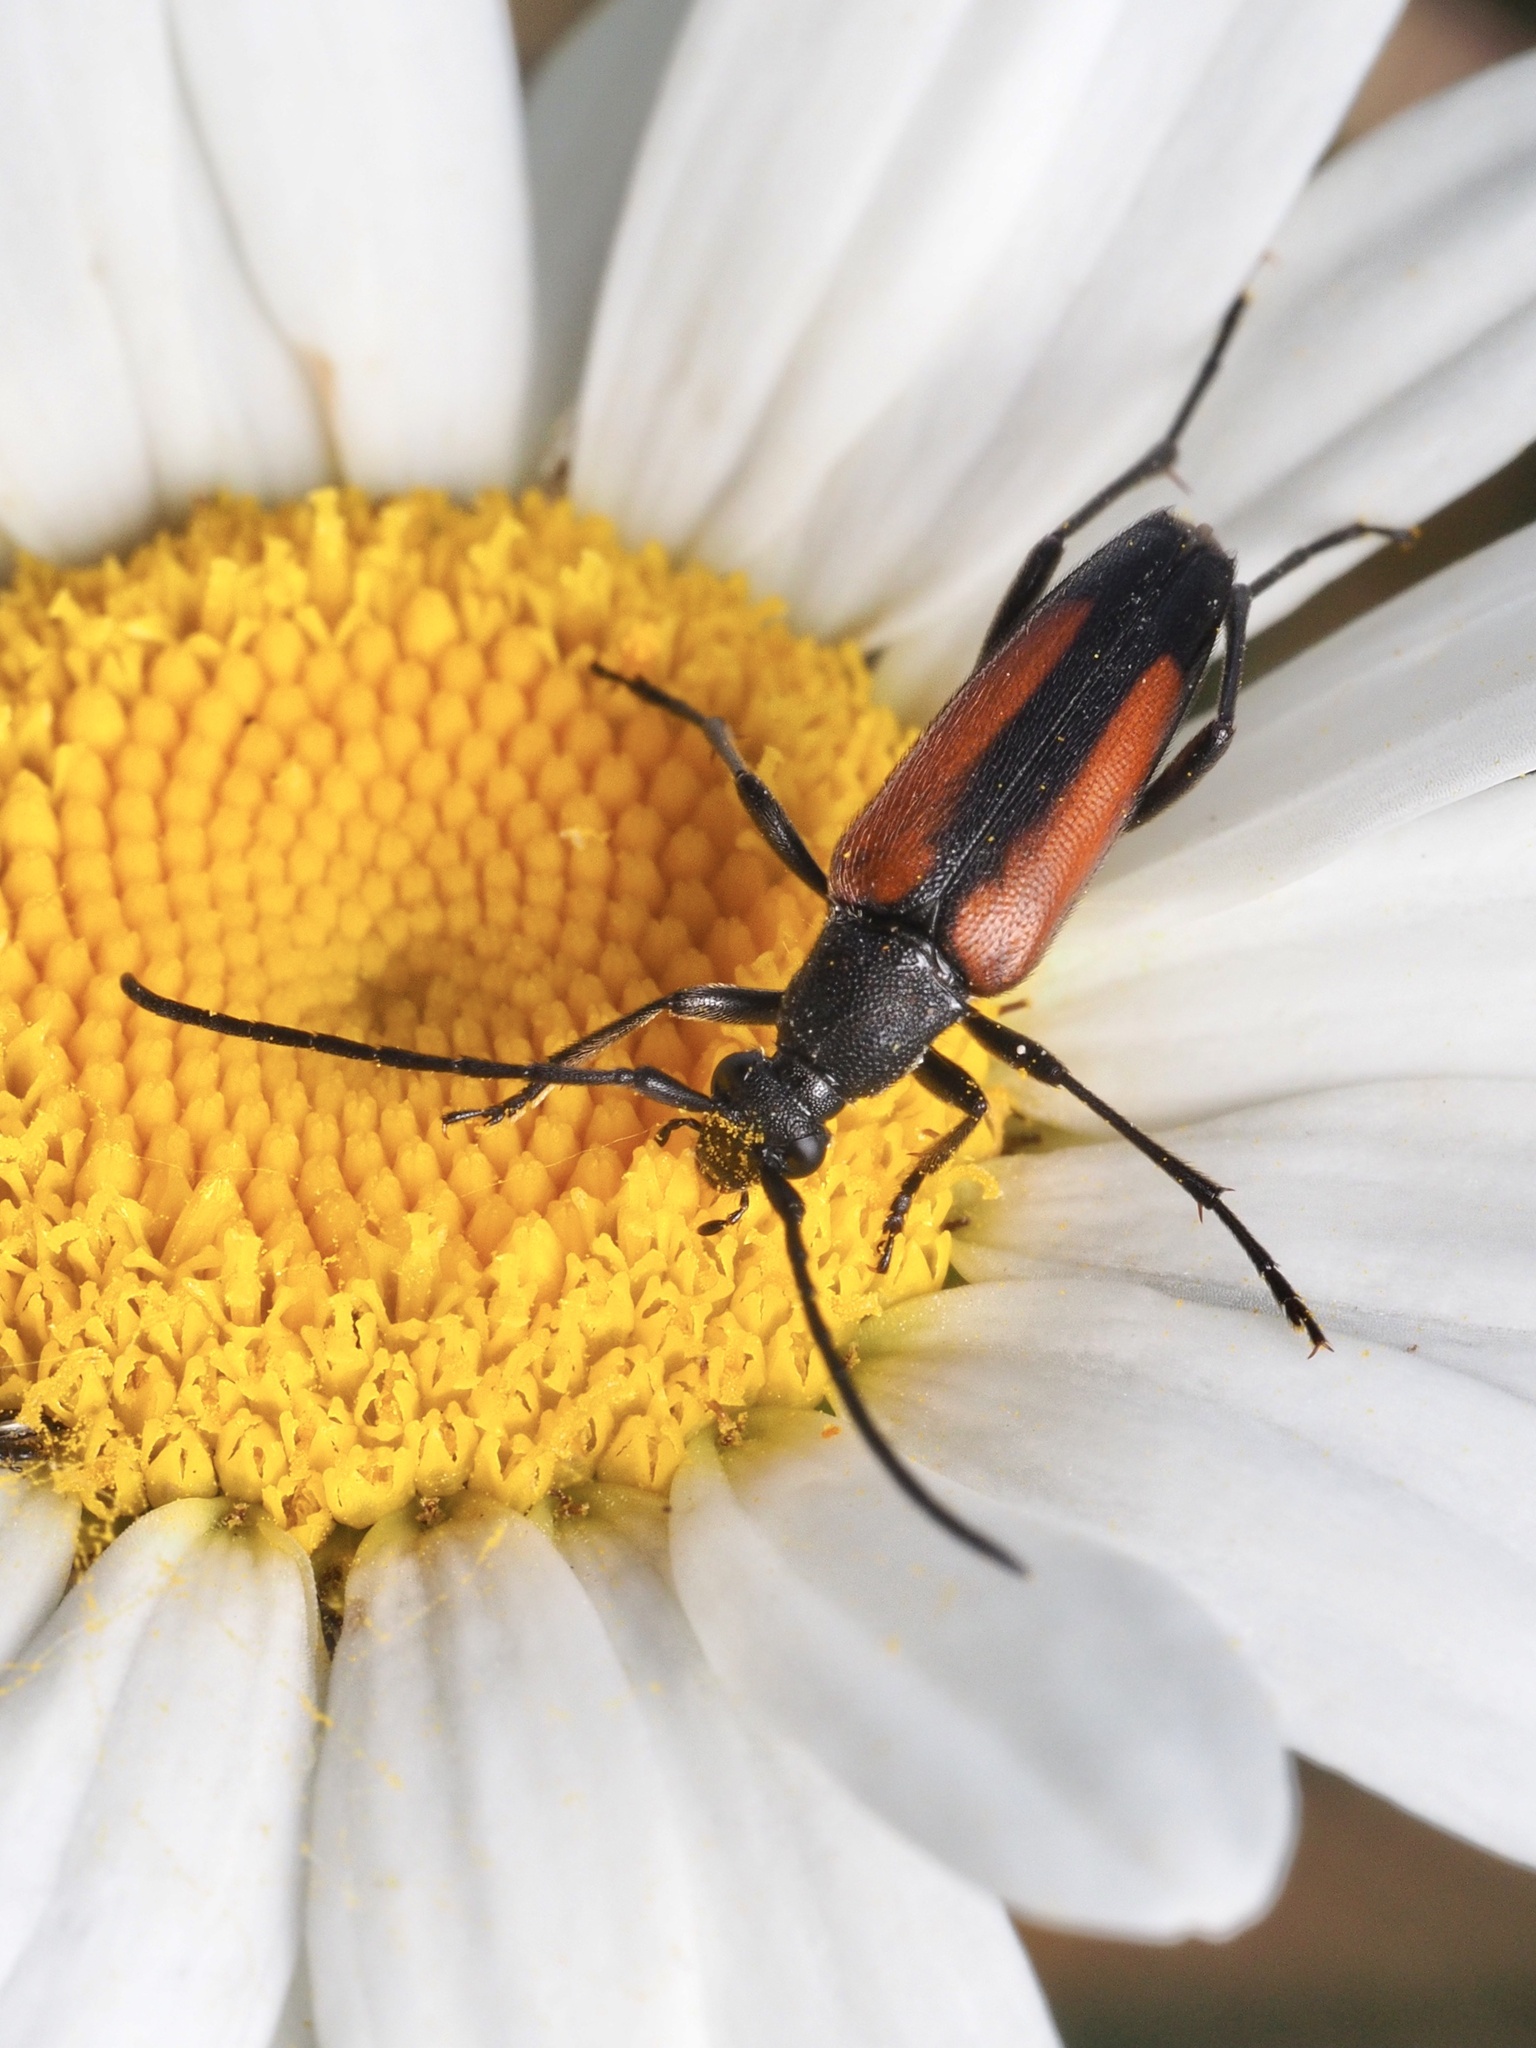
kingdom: Animalia
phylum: Arthropoda
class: Insecta
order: Coleoptera
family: Cerambycidae
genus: Stenurella
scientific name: Stenurella melanura
